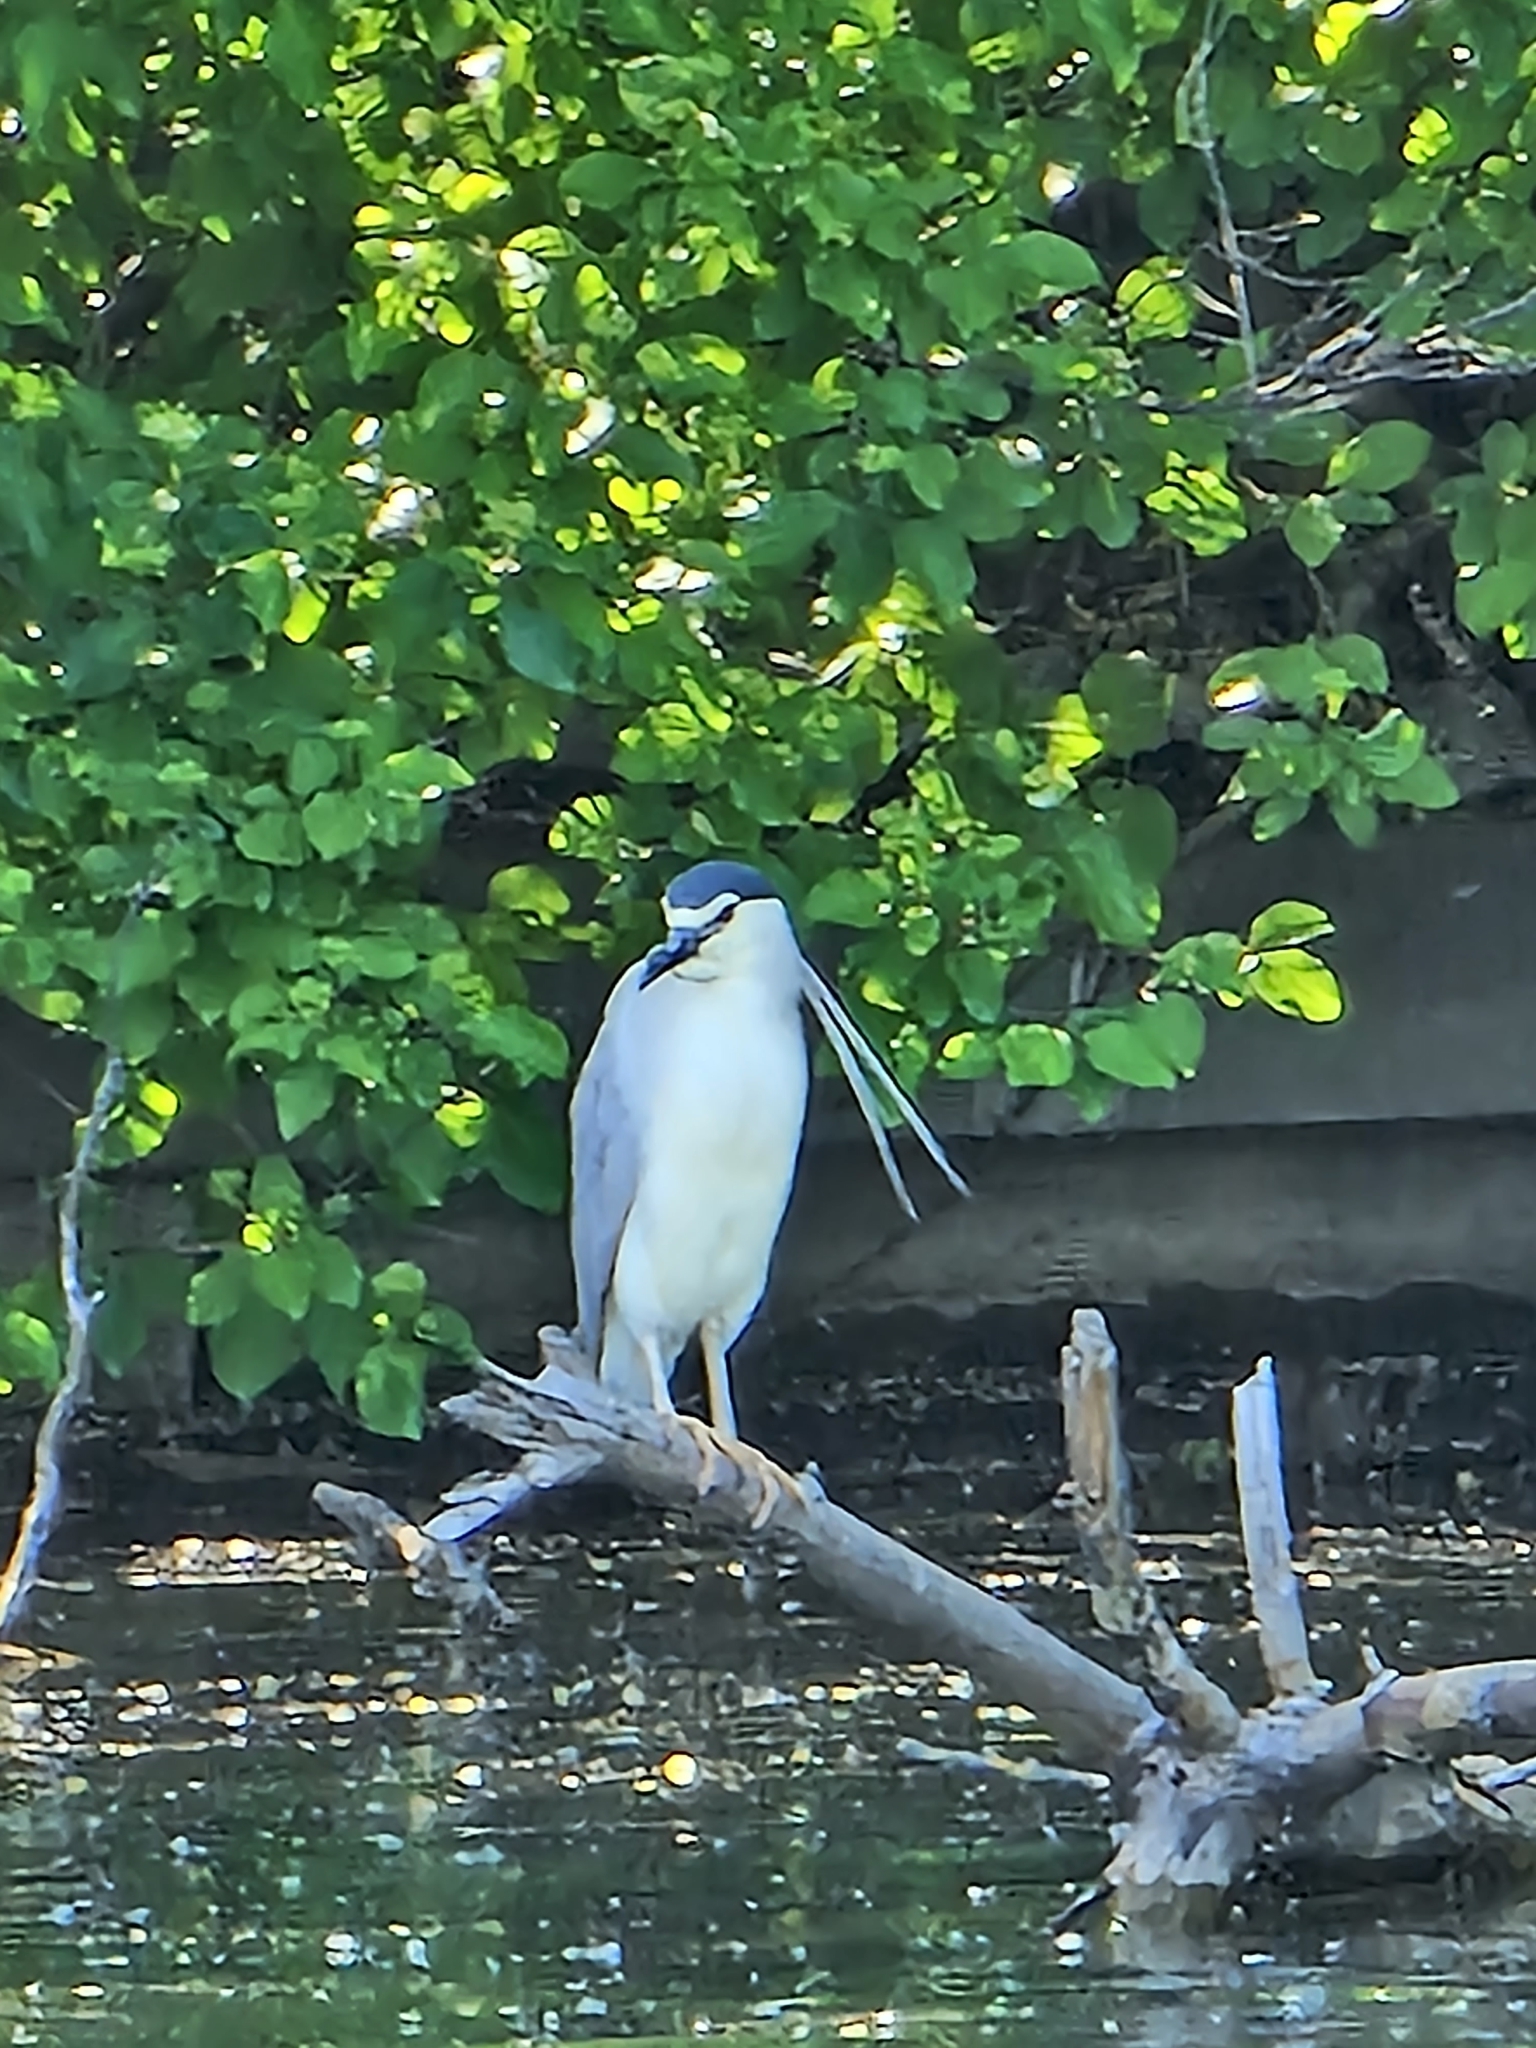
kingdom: Animalia
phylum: Chordata
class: Aves
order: Pelecaniformes
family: Ardeidae
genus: Nycticorax
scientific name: Nycticorax nycticorax
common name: Black-crowned night heron
